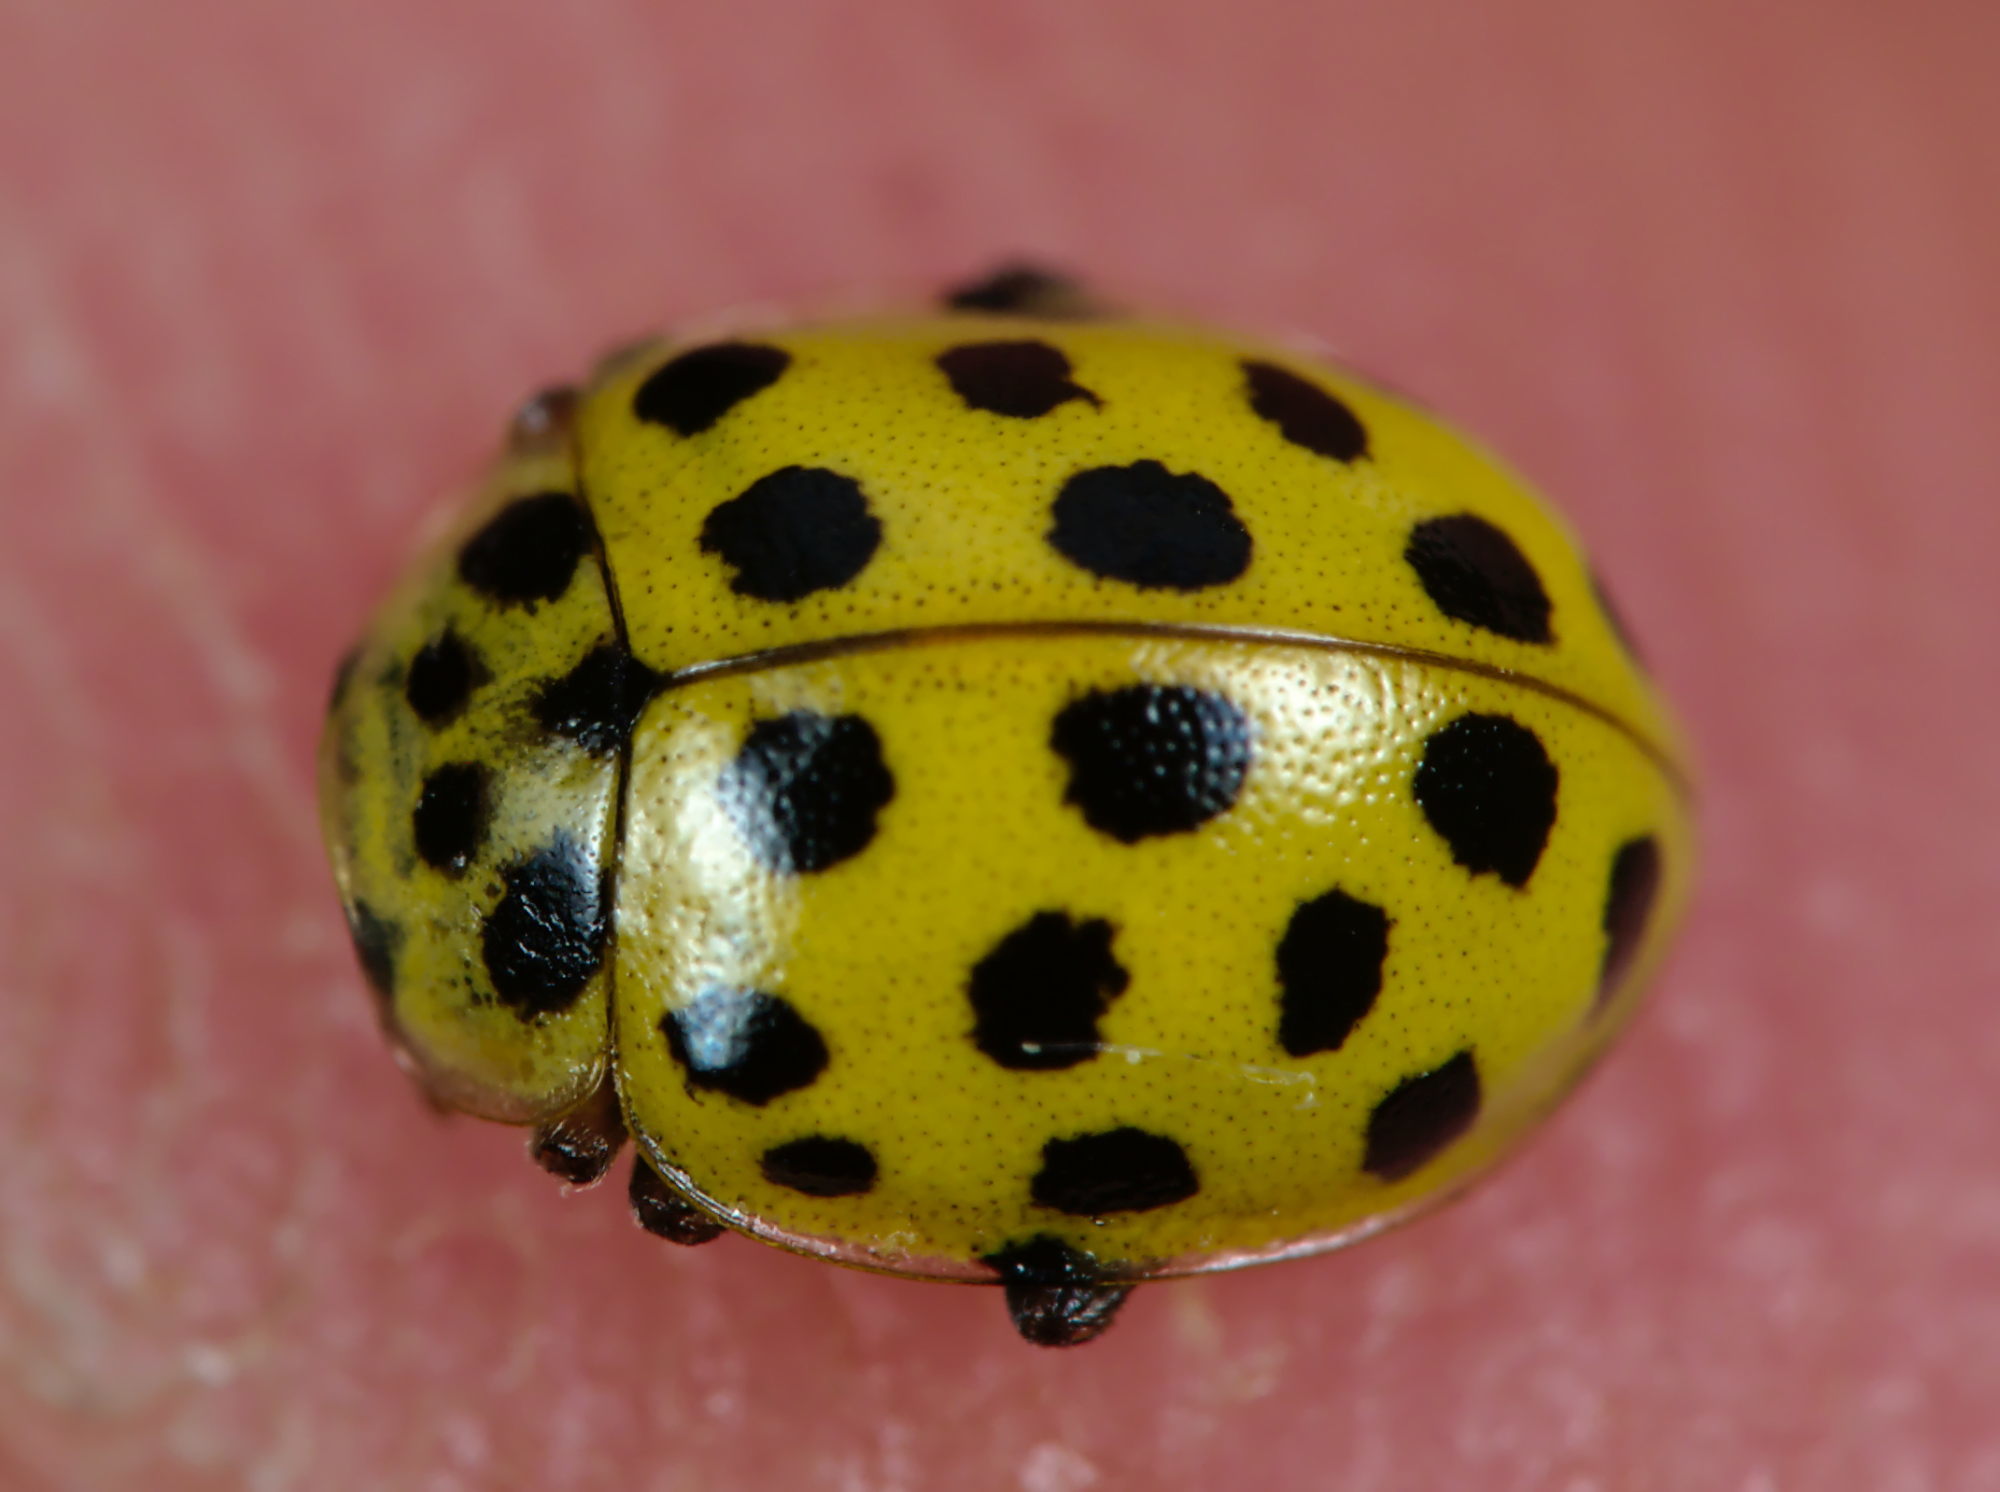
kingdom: Animalia
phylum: Arthropoda
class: Insecta
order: Coleoptera
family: Coccinellidae
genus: Psyllobora
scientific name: Psyllobora vigintiduopunctata
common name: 22-spot ladybird
